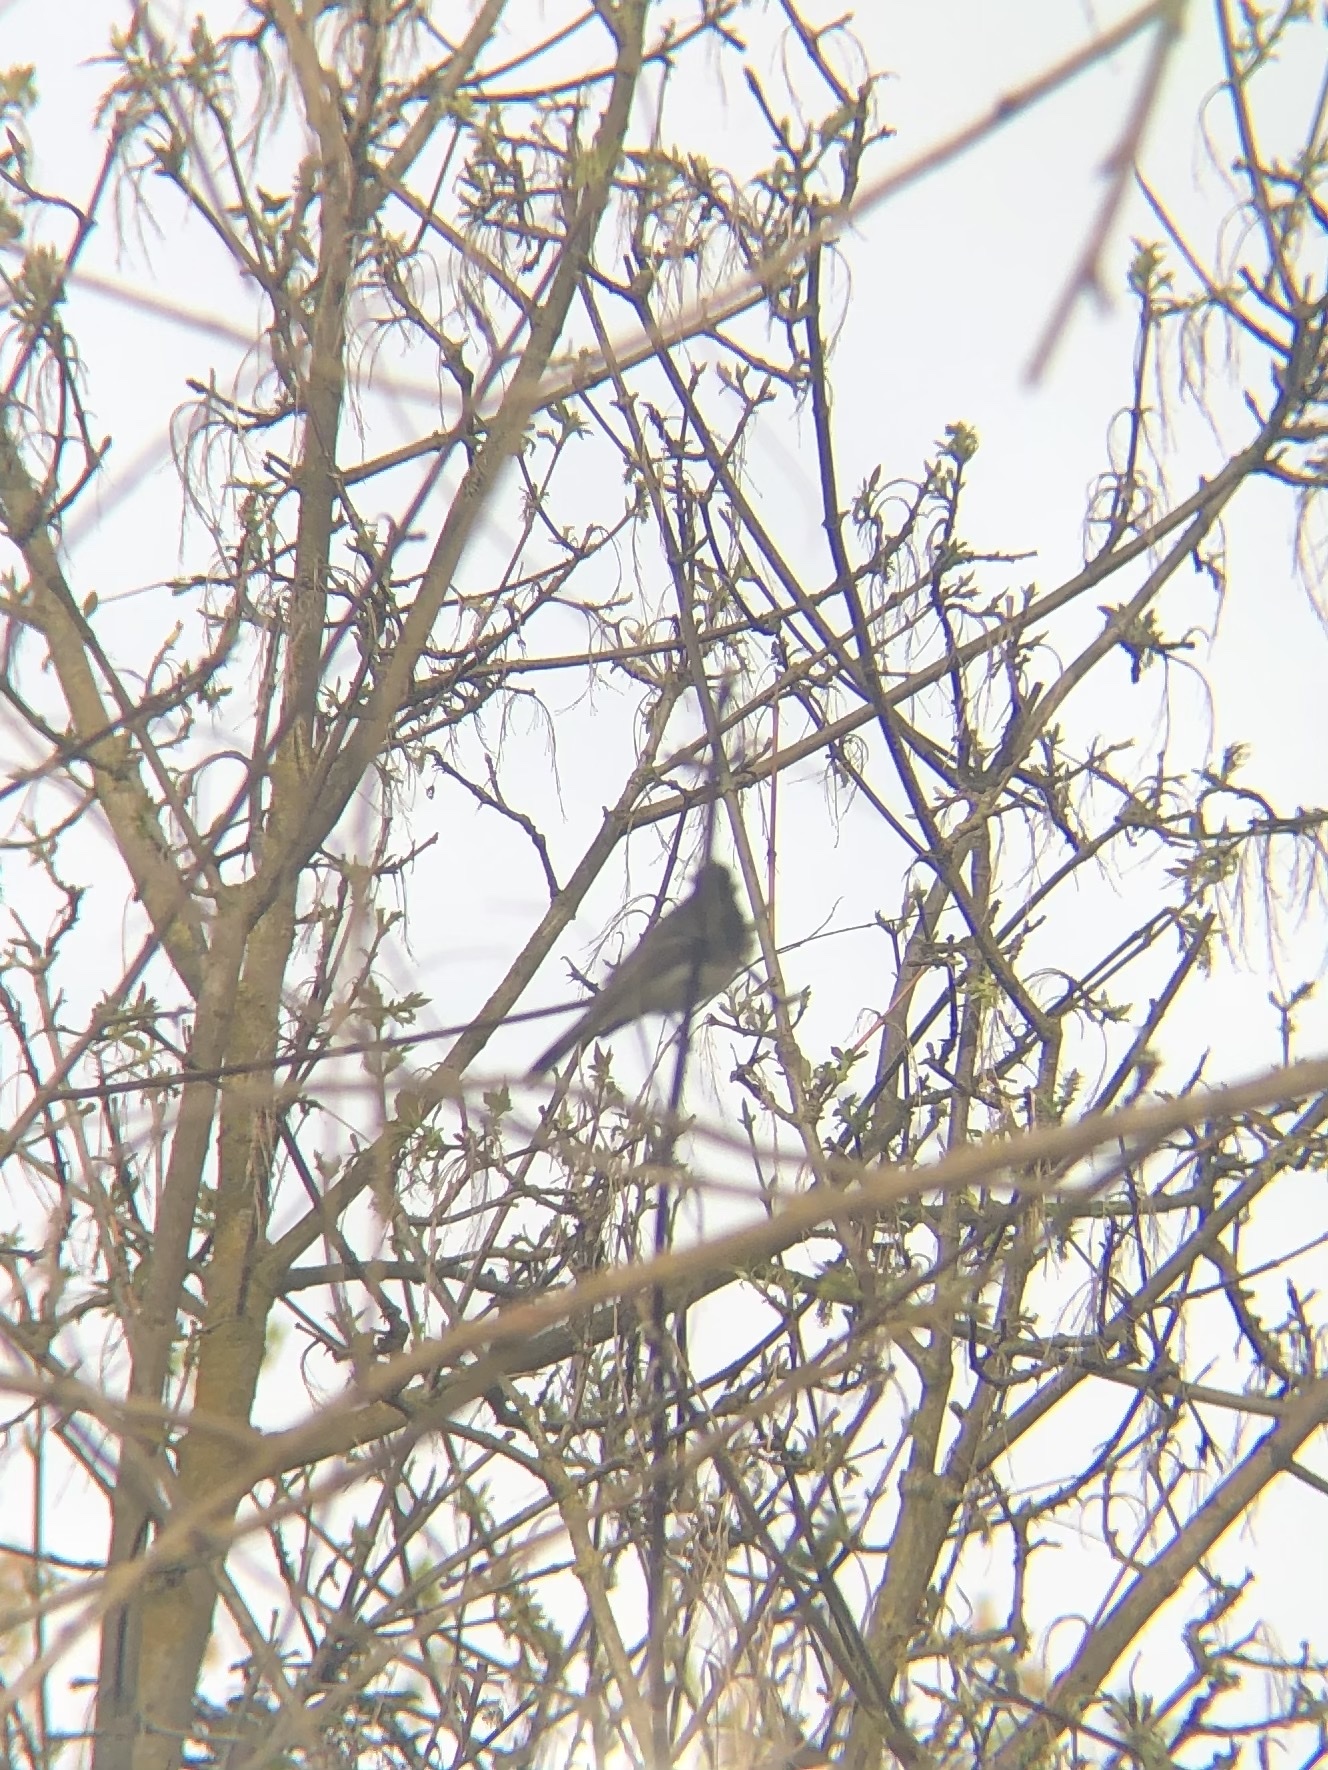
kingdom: Animalia
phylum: Chordata
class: Aves
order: Passeriformes
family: Tyrannidae
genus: Sayornis
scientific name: Sayornis nigricans
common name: Black phoebe
